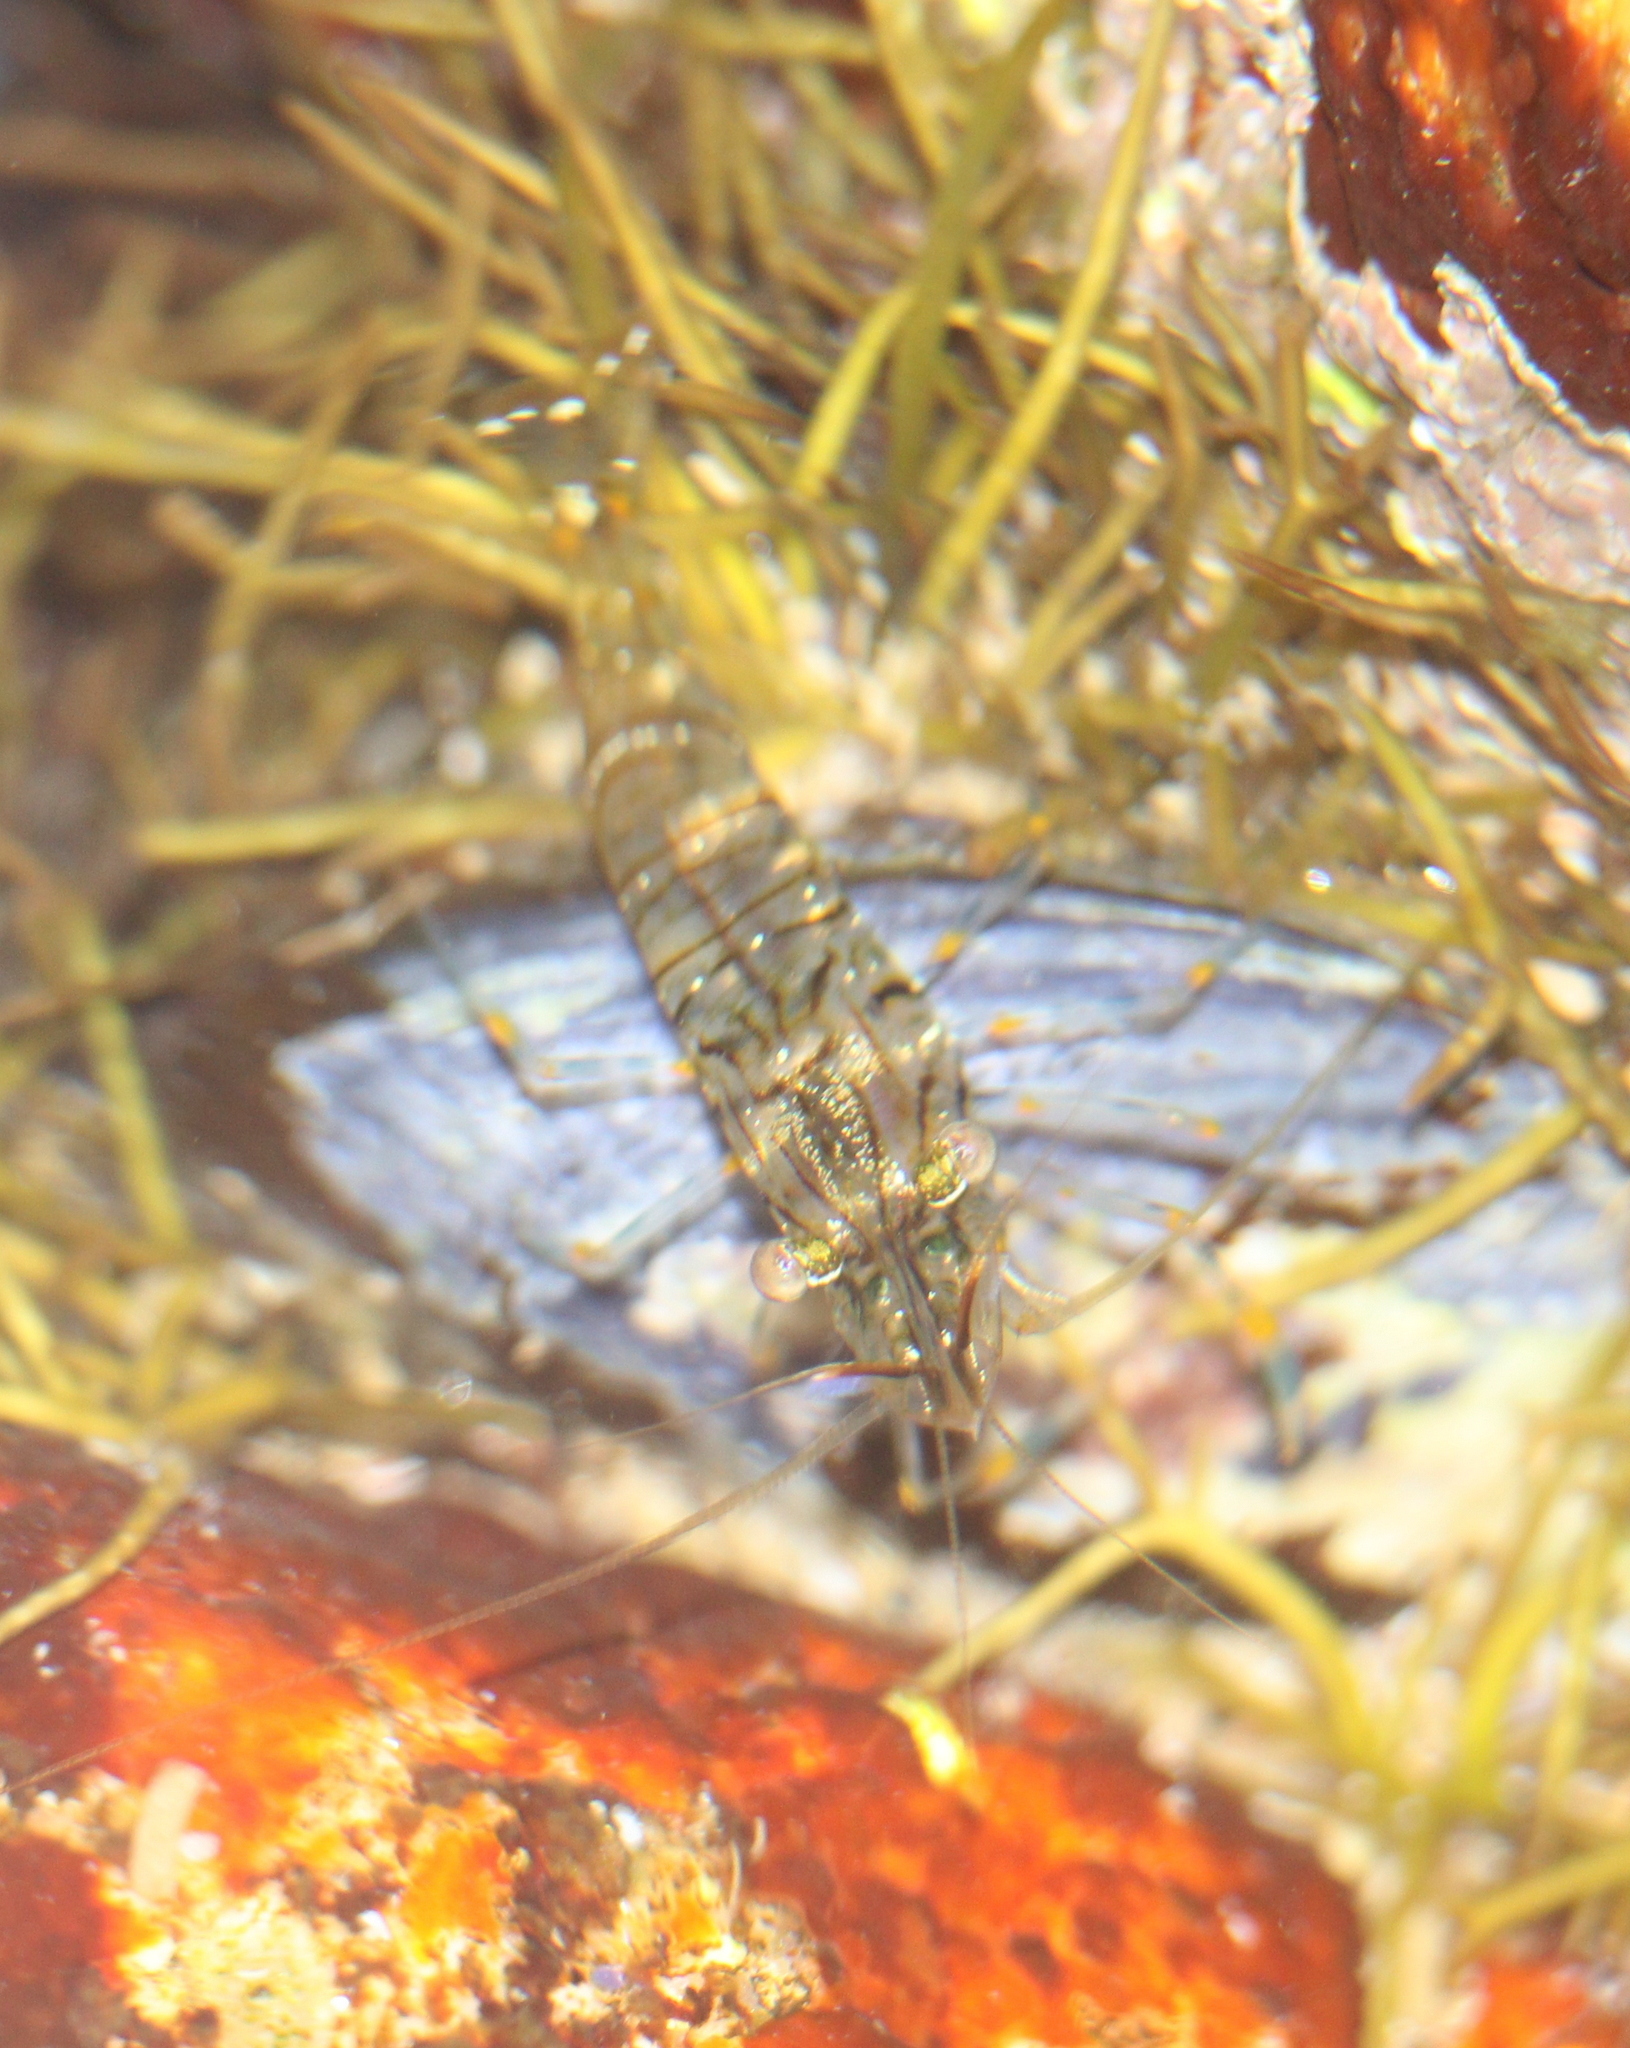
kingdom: Animalia
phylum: Arthropoda
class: Malacostraca
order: Decapoda
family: Palaemonidae
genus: Palaemon
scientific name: Palaemon elegans
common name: Grass prawm
